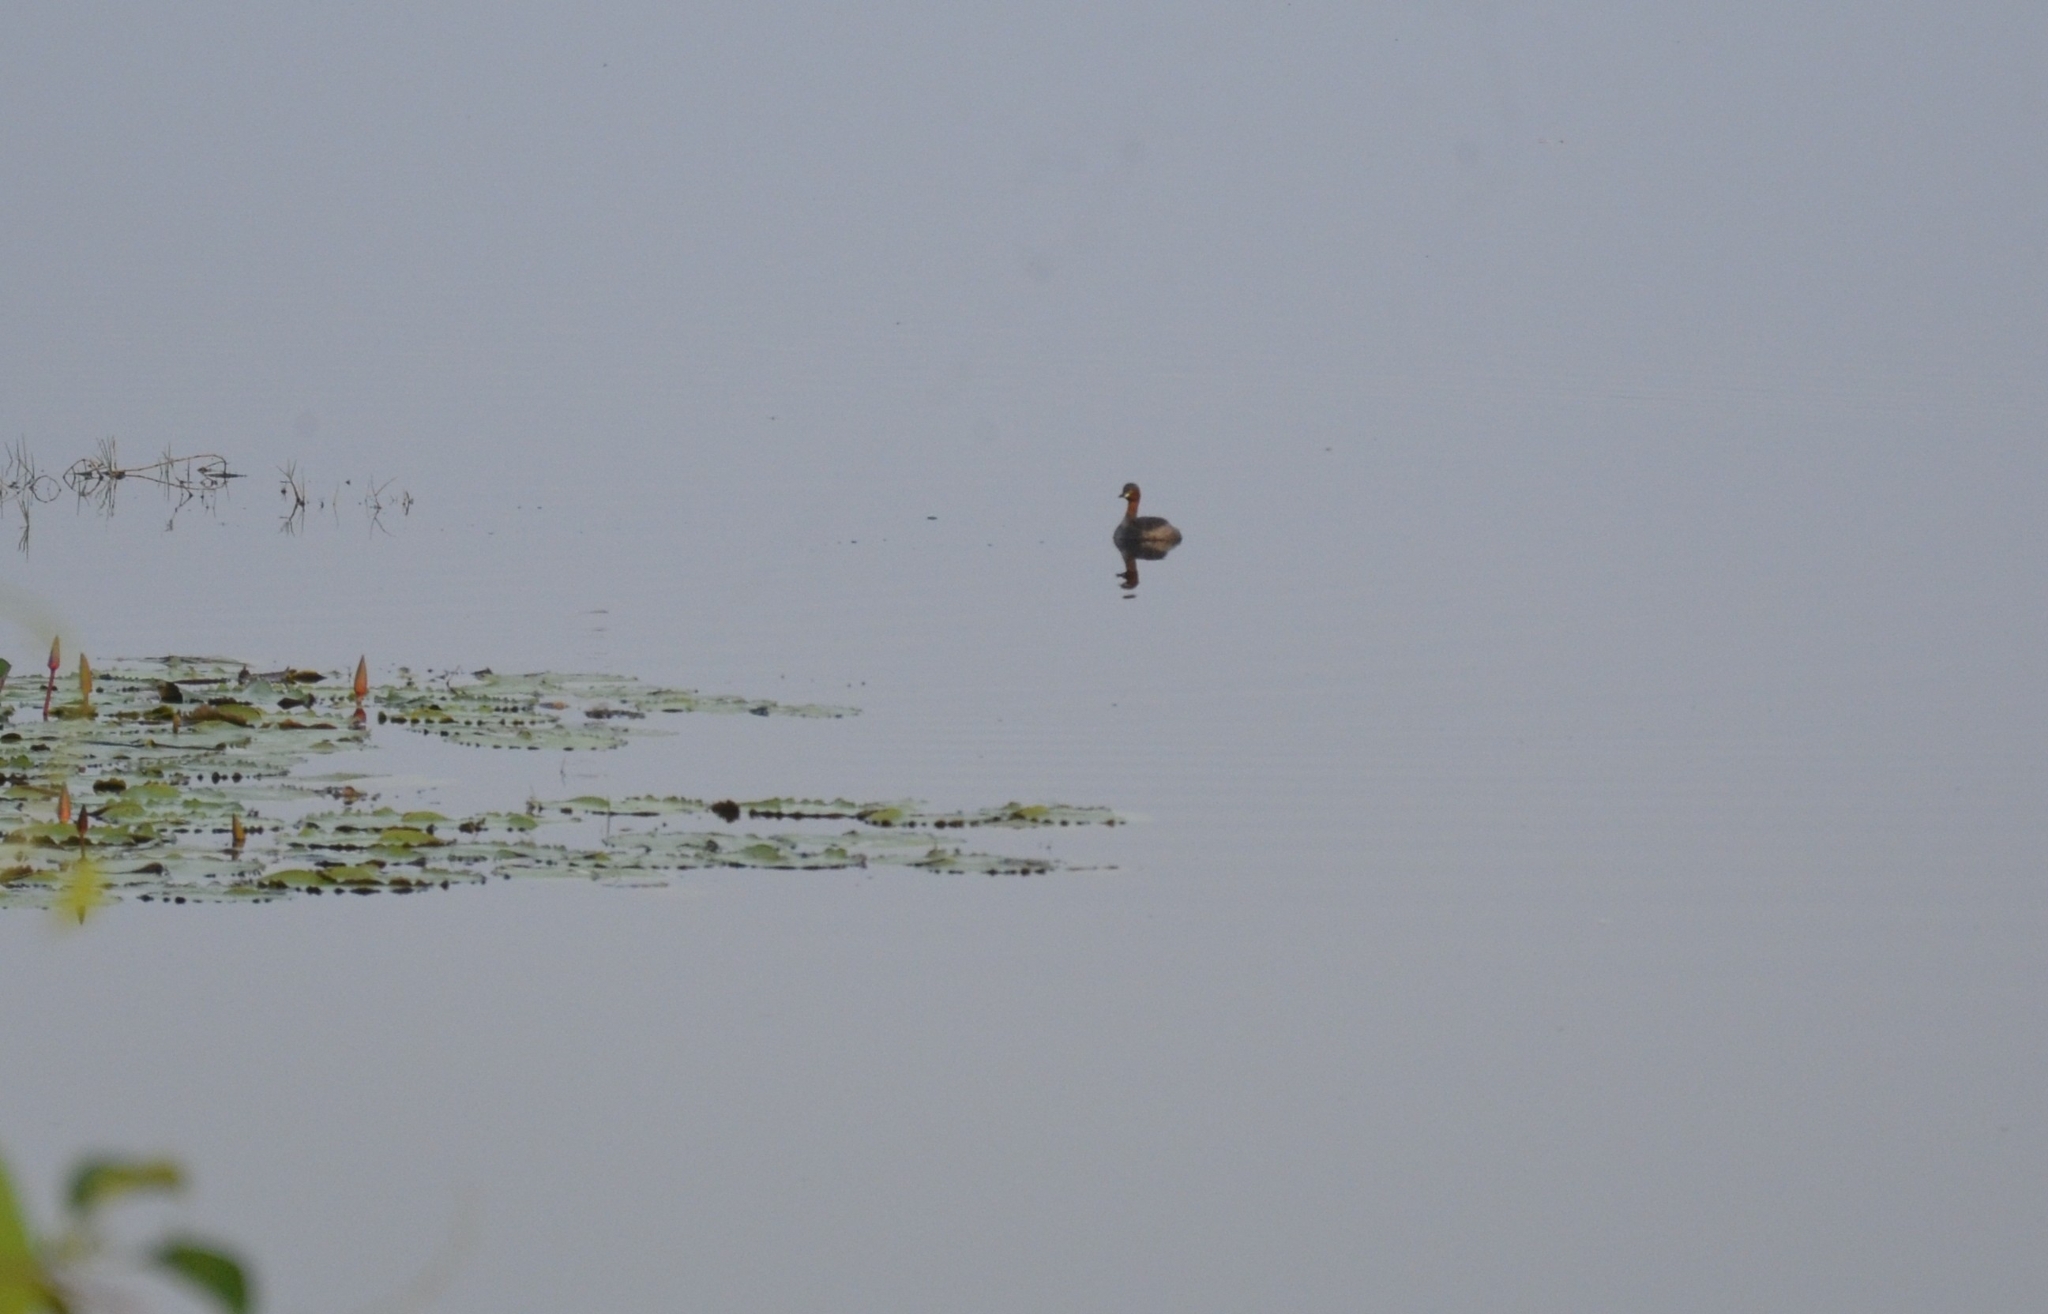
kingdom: Animalia
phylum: Chordata
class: Aves
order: Podicipediformes
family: Podicipedidae
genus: Tachybaptus
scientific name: Tachybaptus ruficollis
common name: Little grebe
